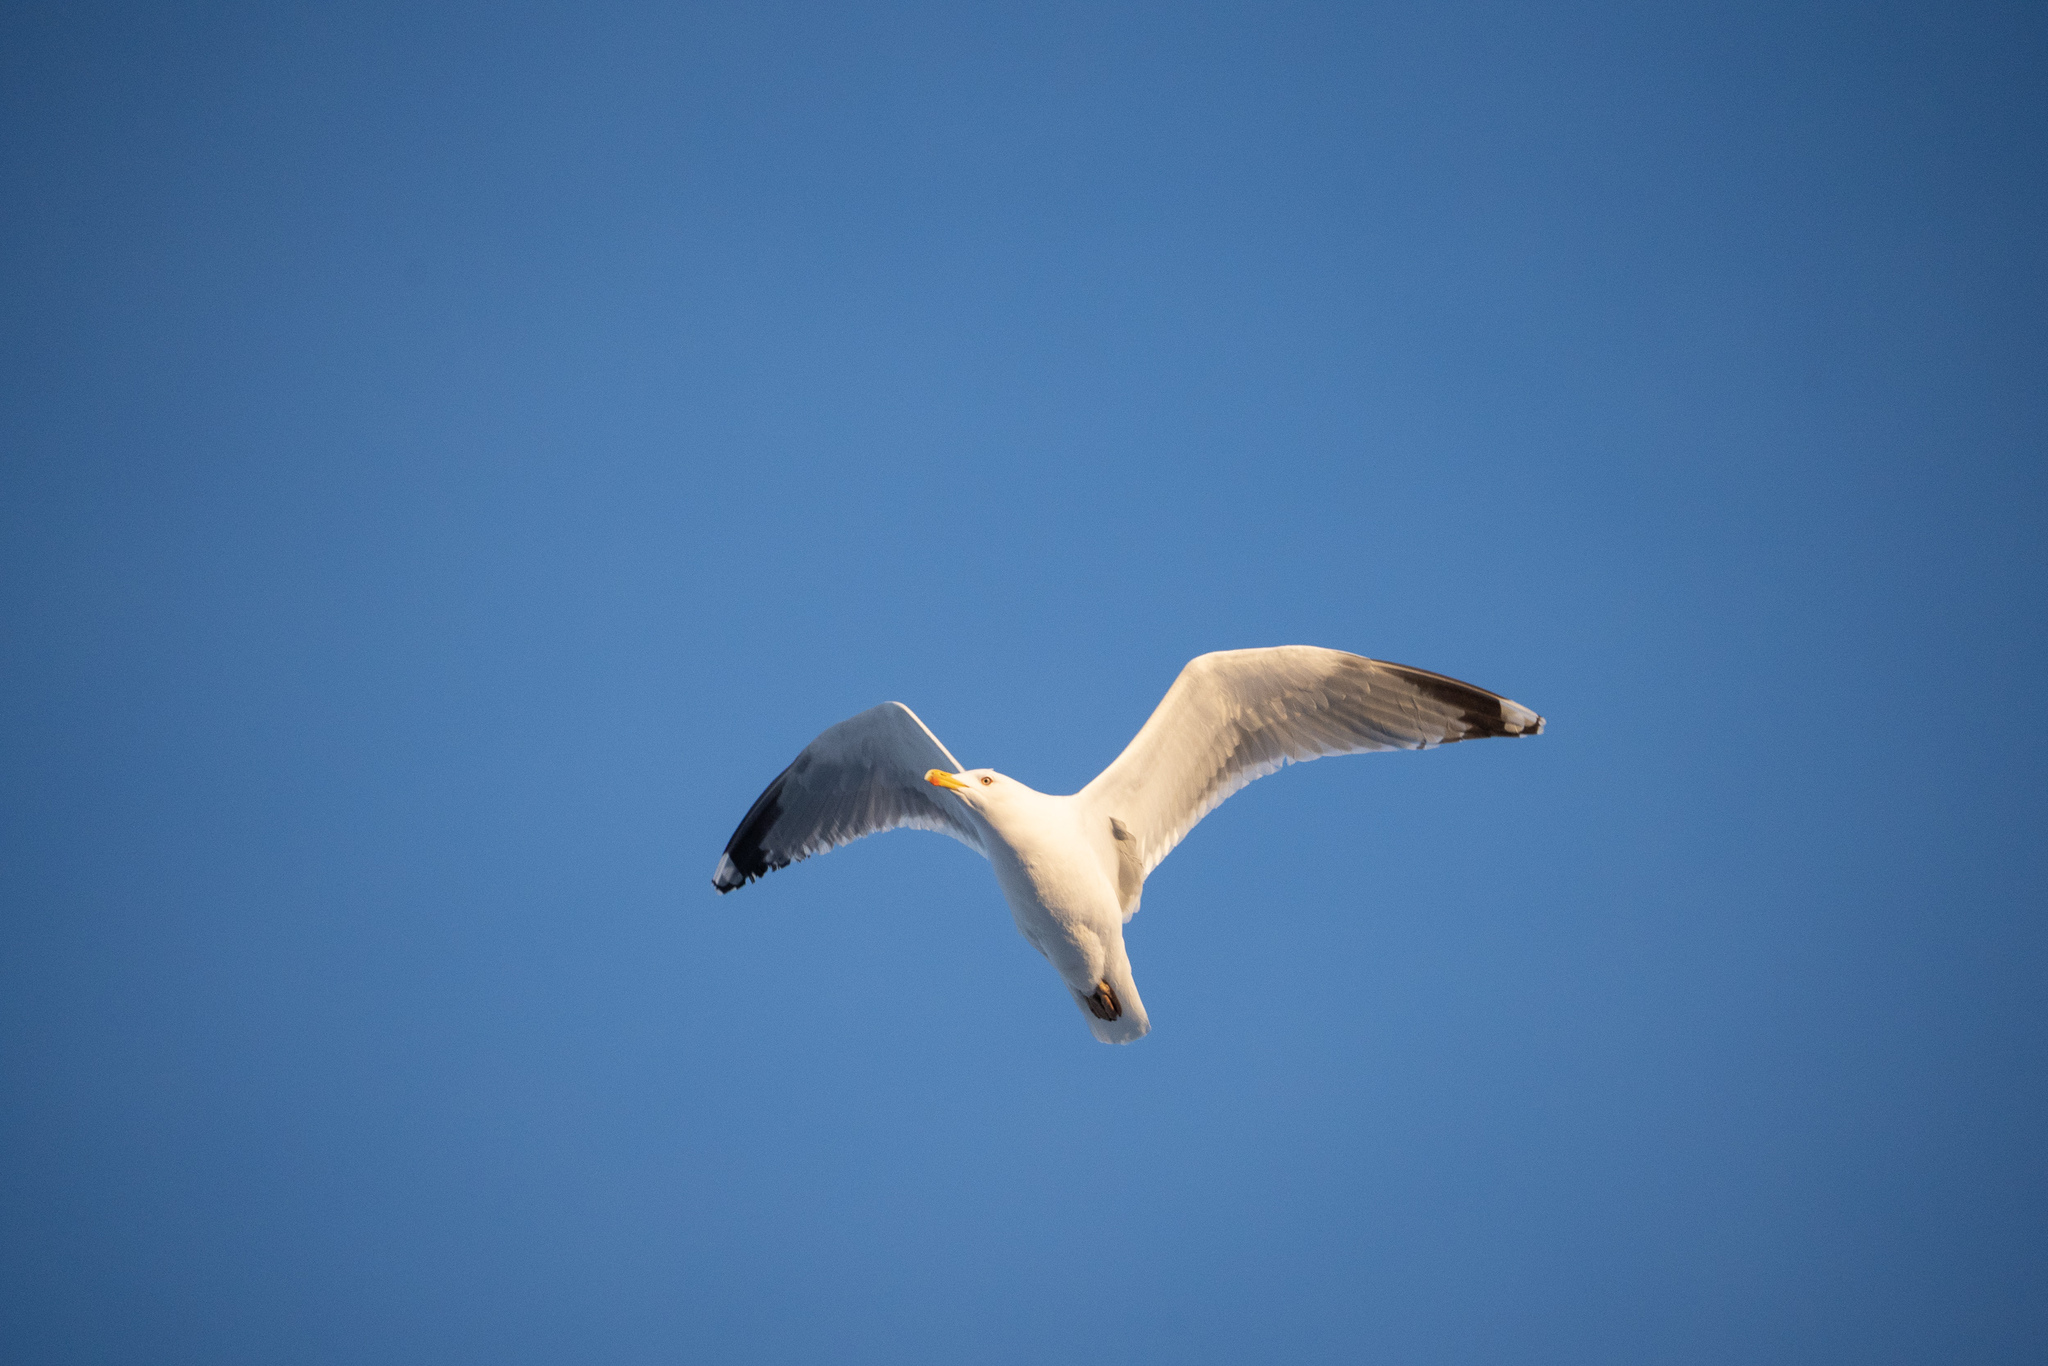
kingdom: Animalia
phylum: Chordata
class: Aves
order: Charadriiformes
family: Laridae
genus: Larus
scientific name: Larus argentatus
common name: Herring gull
